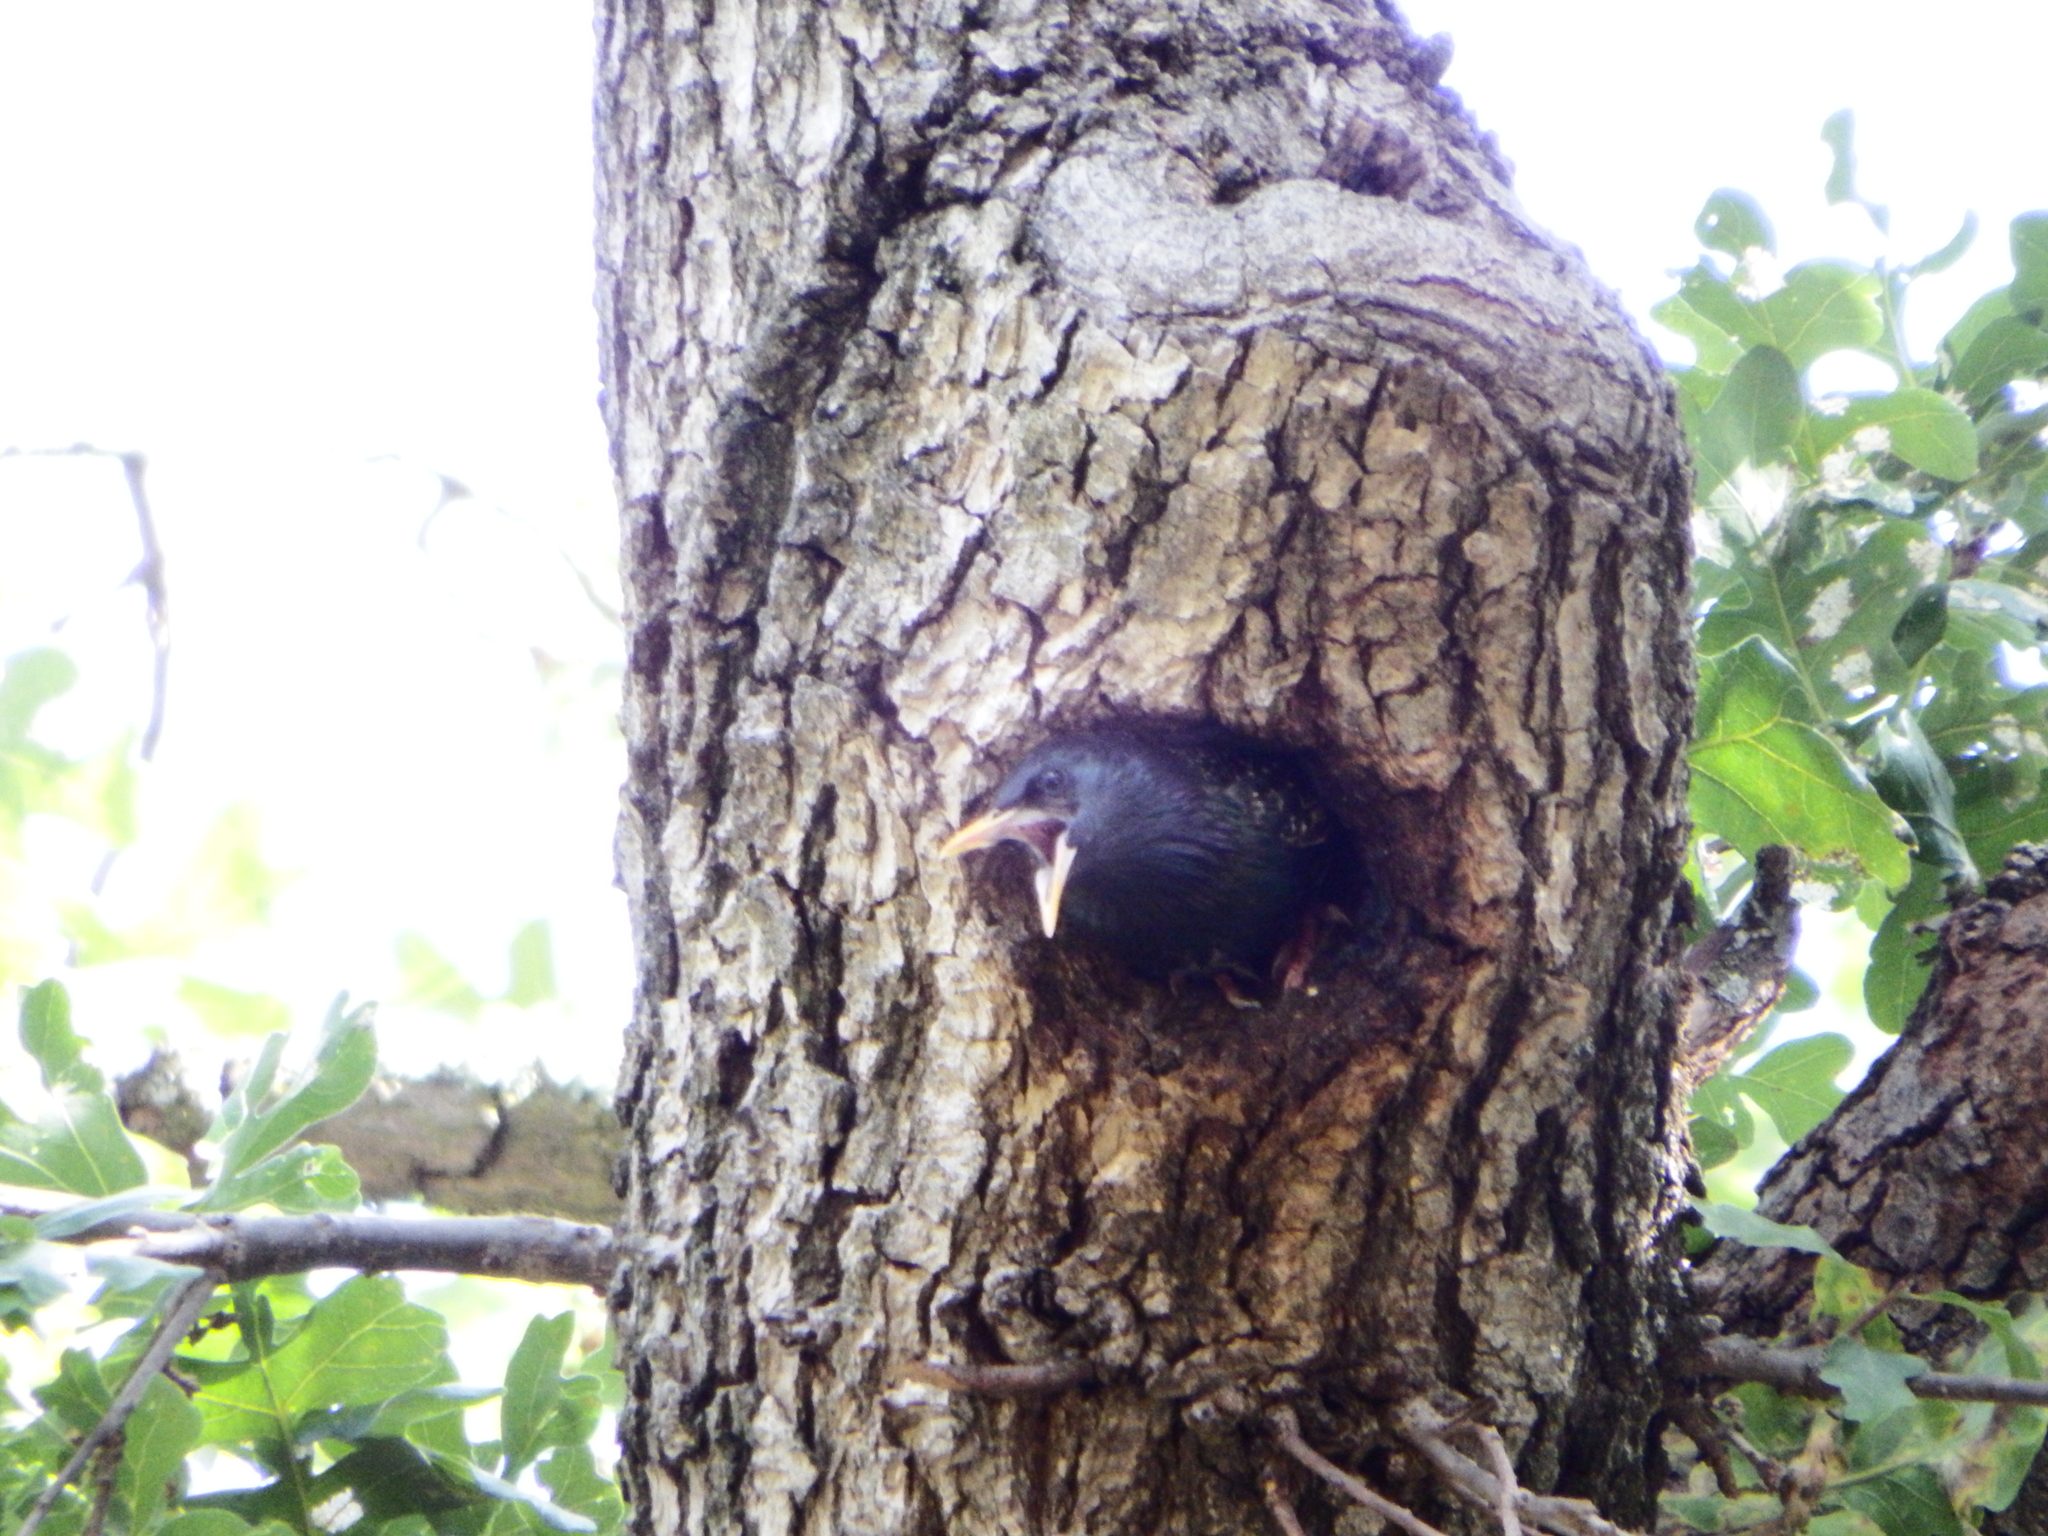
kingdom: Animalia
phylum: Chordata
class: Aves
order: Passeriformes
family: Sturnidae
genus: Sturnus
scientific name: Sturnus vulgaris
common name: Common starling
